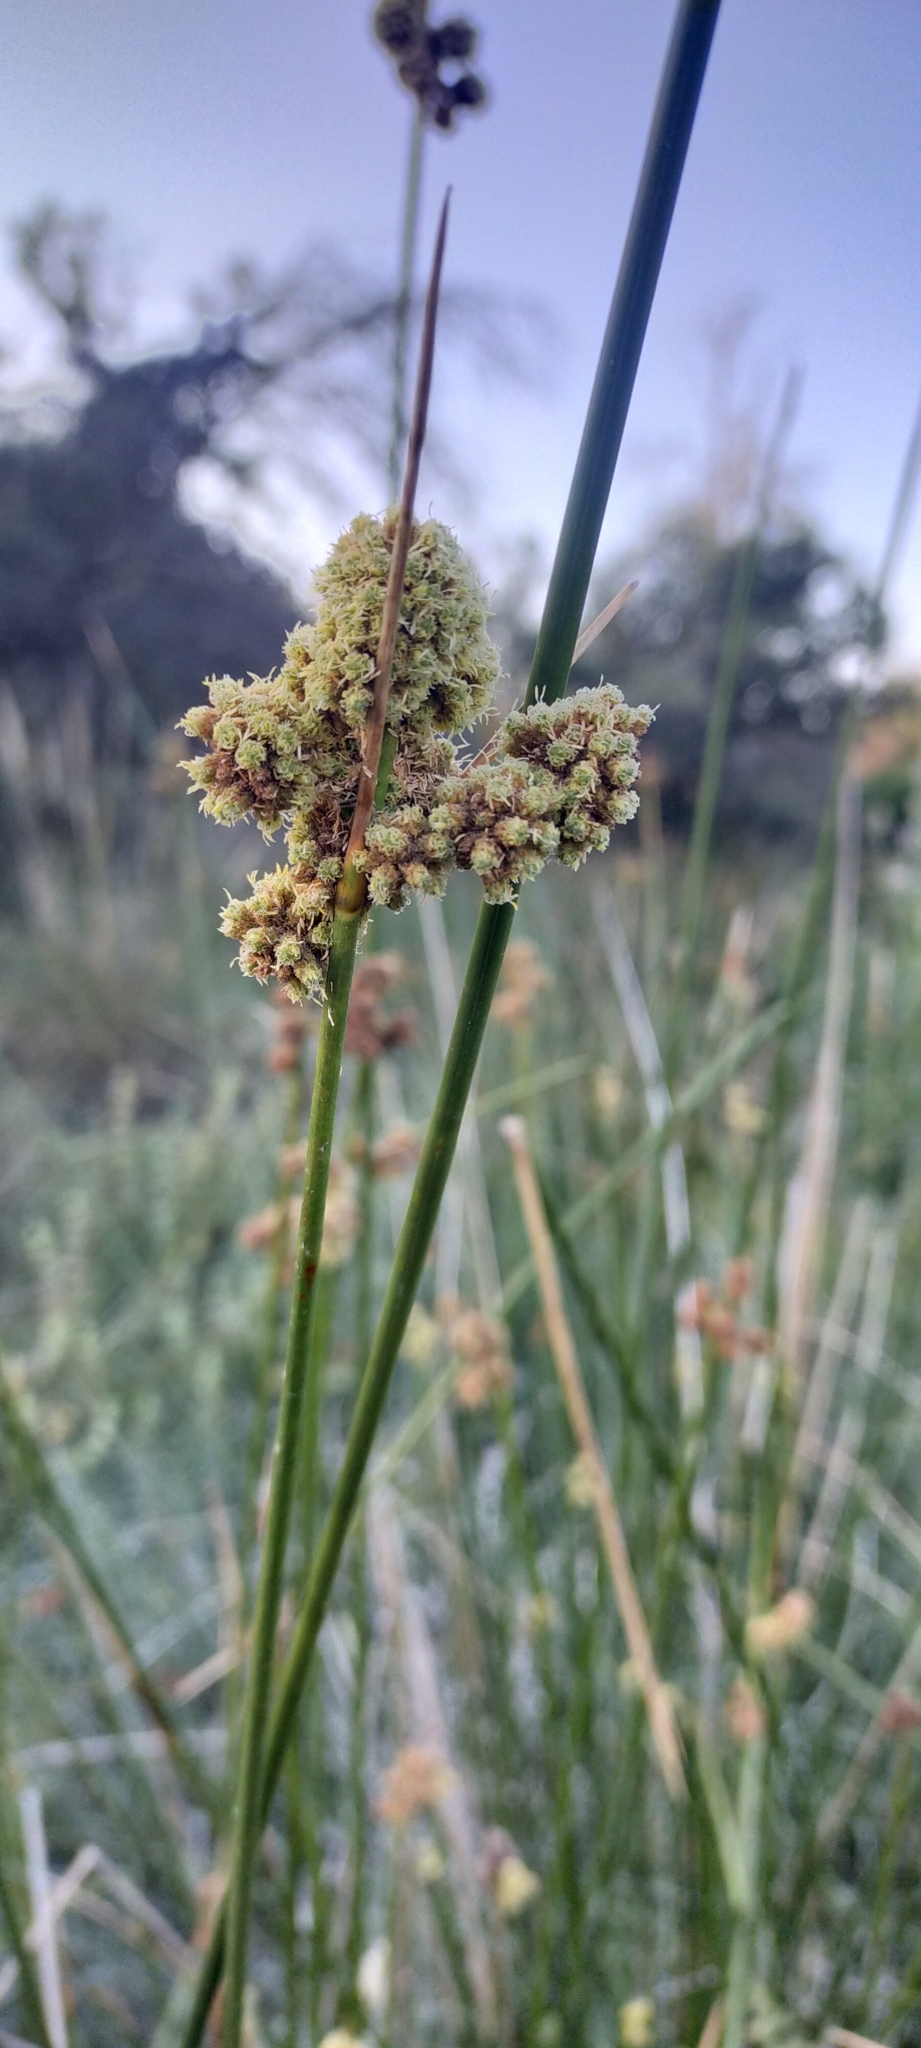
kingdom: Plantae
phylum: Tracheophyta
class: Liliopsida
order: Poales
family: Cyperaceae
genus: Scirpoides
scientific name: Scirpoides holoschoenus
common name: Round-headed club-rush
